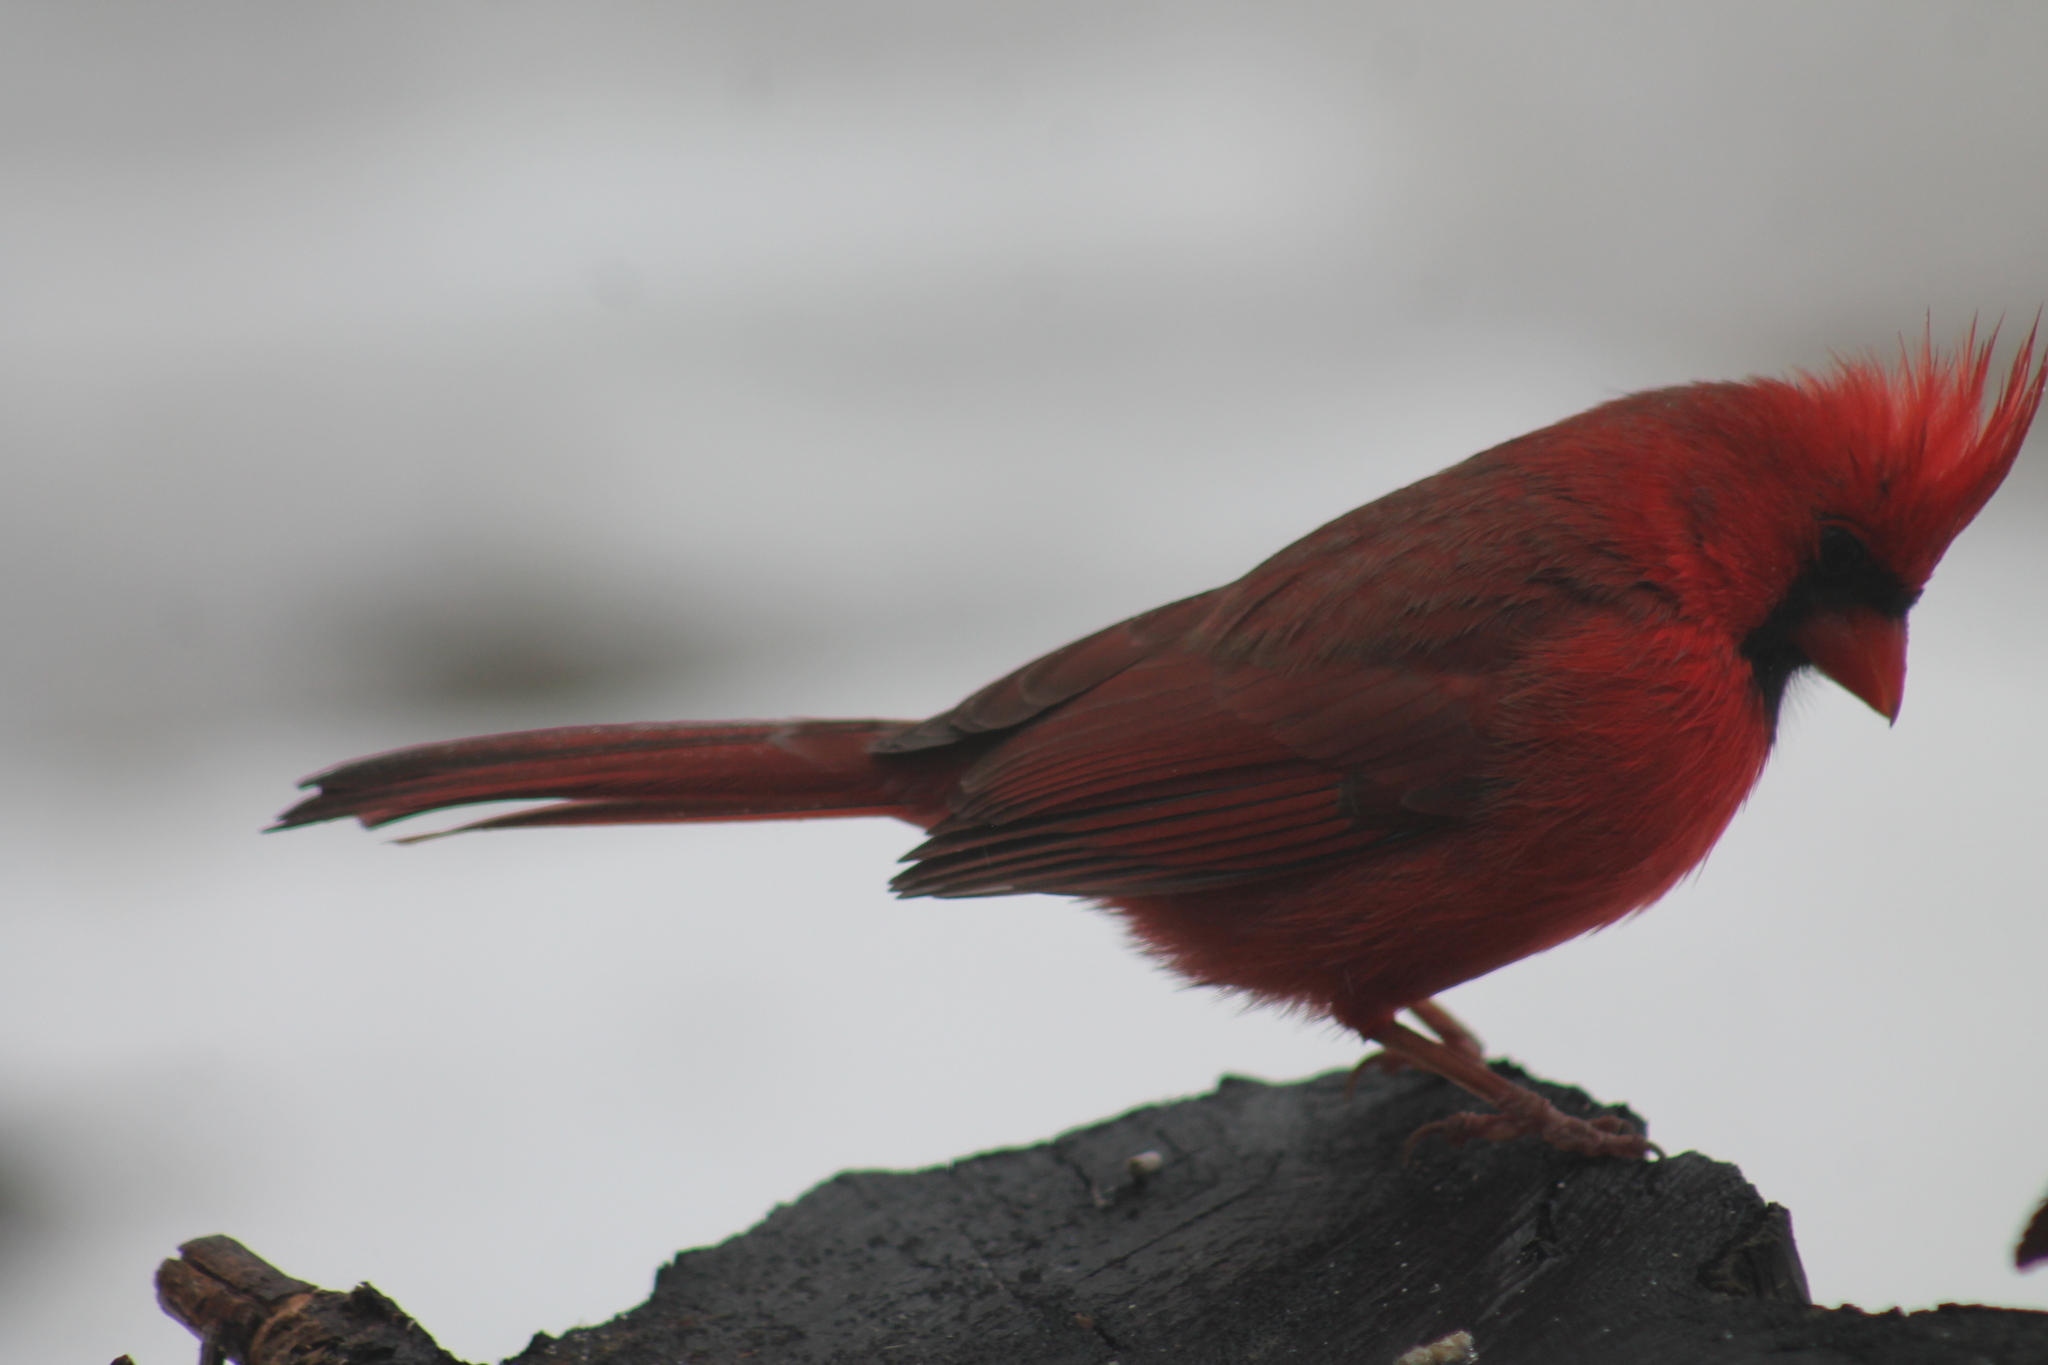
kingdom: Animalia
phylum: Chordata
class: Aves
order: Passeriformes
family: Cardinalidae
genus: Cardinalis
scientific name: Cardinalis cardinalis
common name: Northern cardinal
